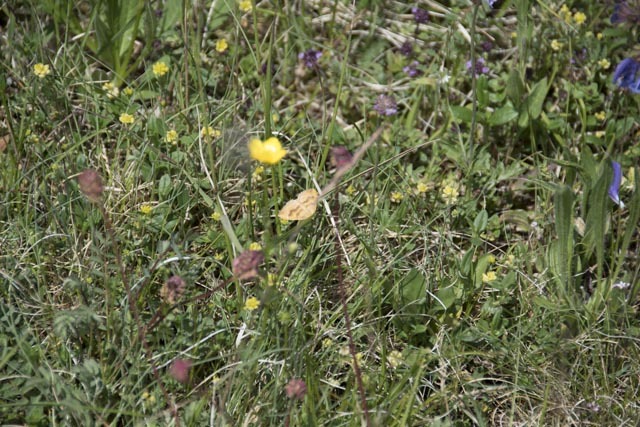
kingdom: Animalia
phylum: Arthropoda
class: Insecta
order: Lepidoptera
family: Geometridae
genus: Camptogramma
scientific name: Camptogramma bilineata
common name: Yellow shell
